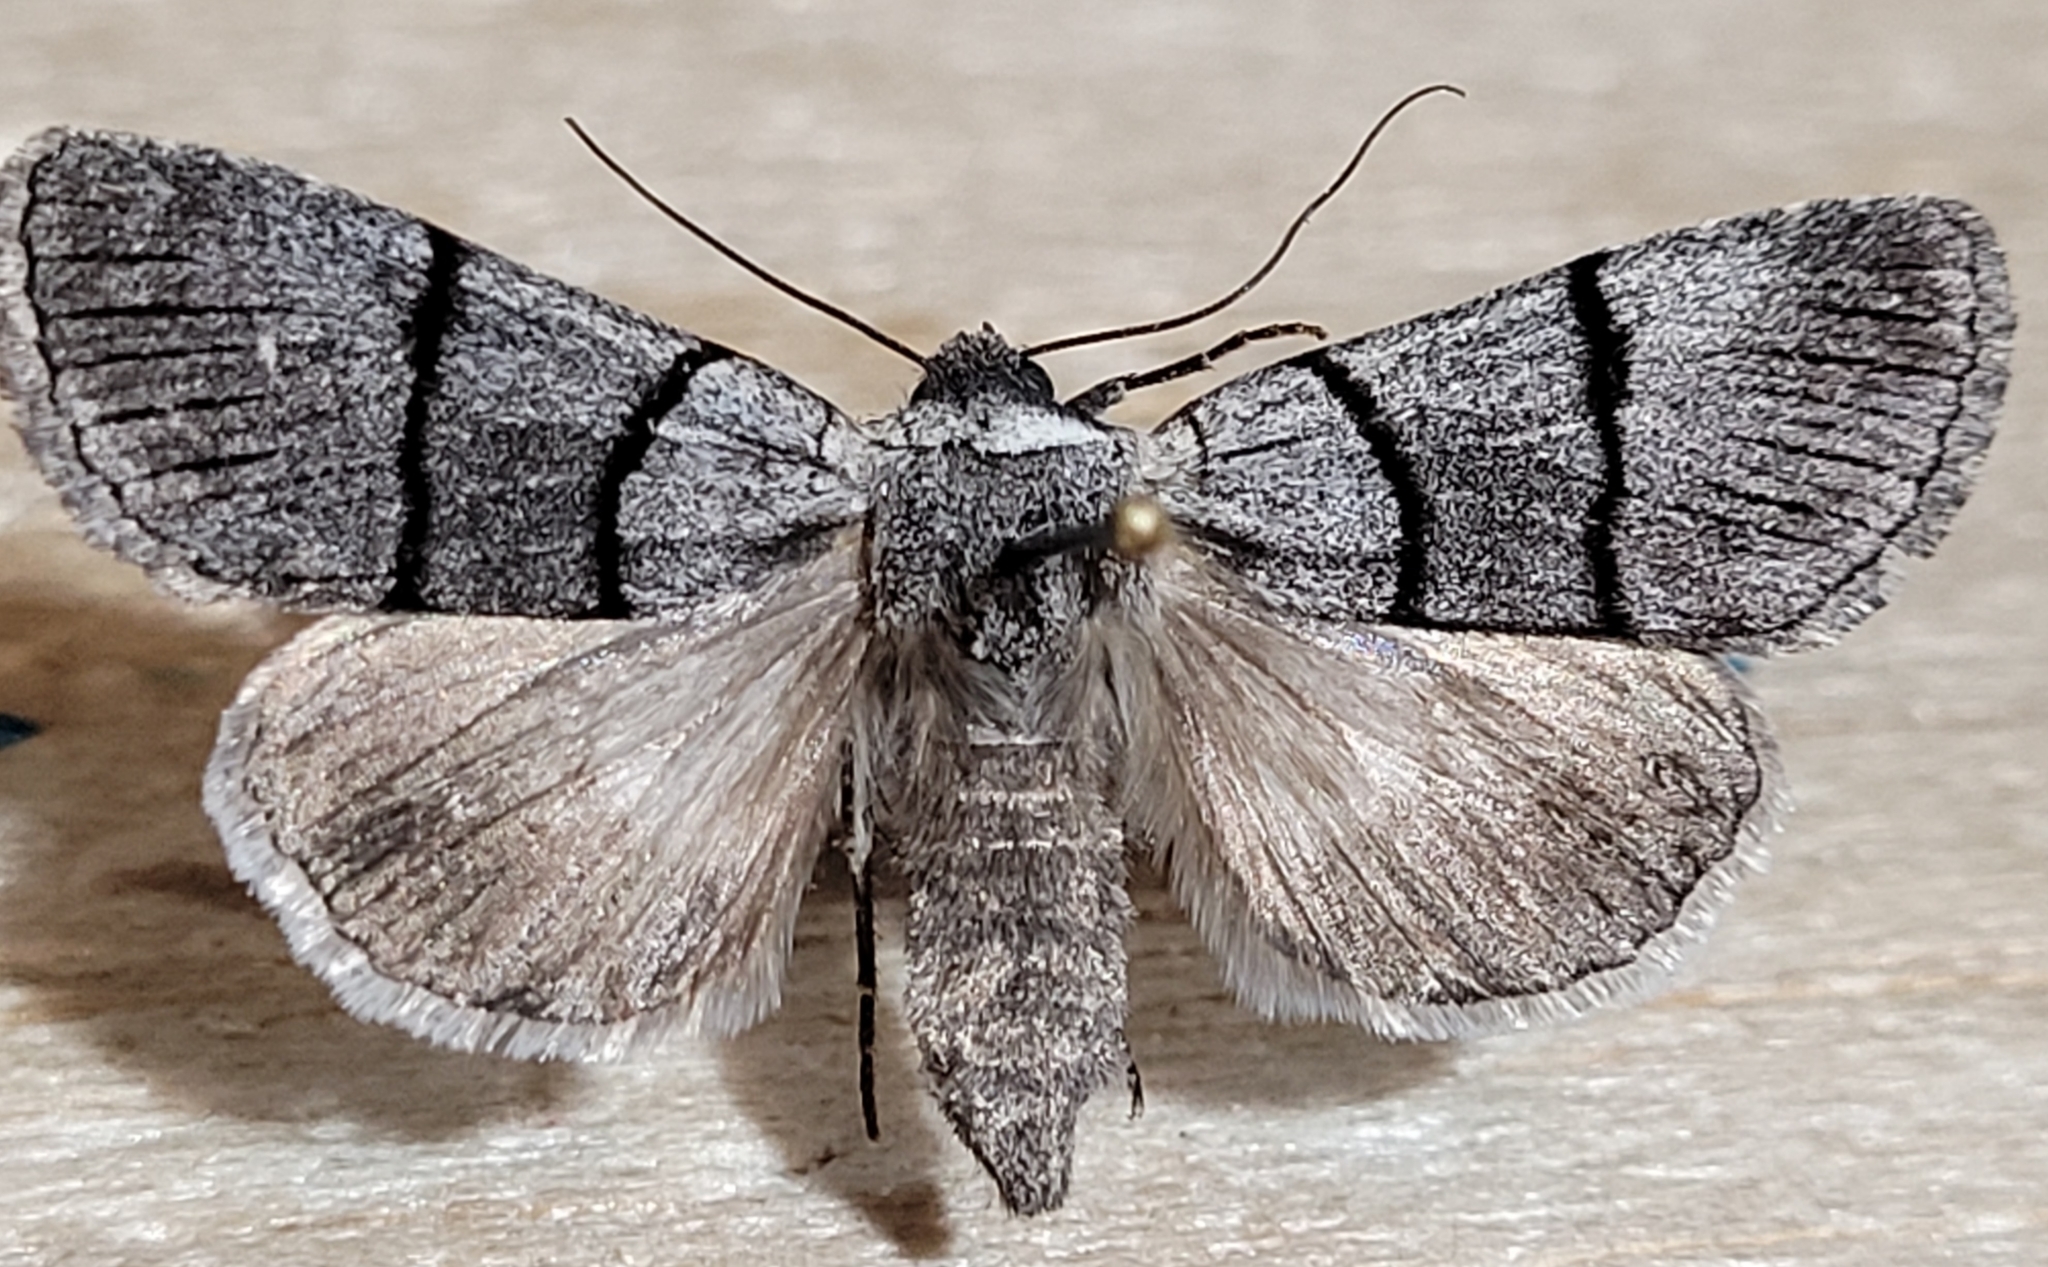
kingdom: Animalia
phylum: Arthropoda
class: Insecta
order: Lepidoptera
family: Noctuidae
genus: Sympistis
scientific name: Sympistis barnesii
